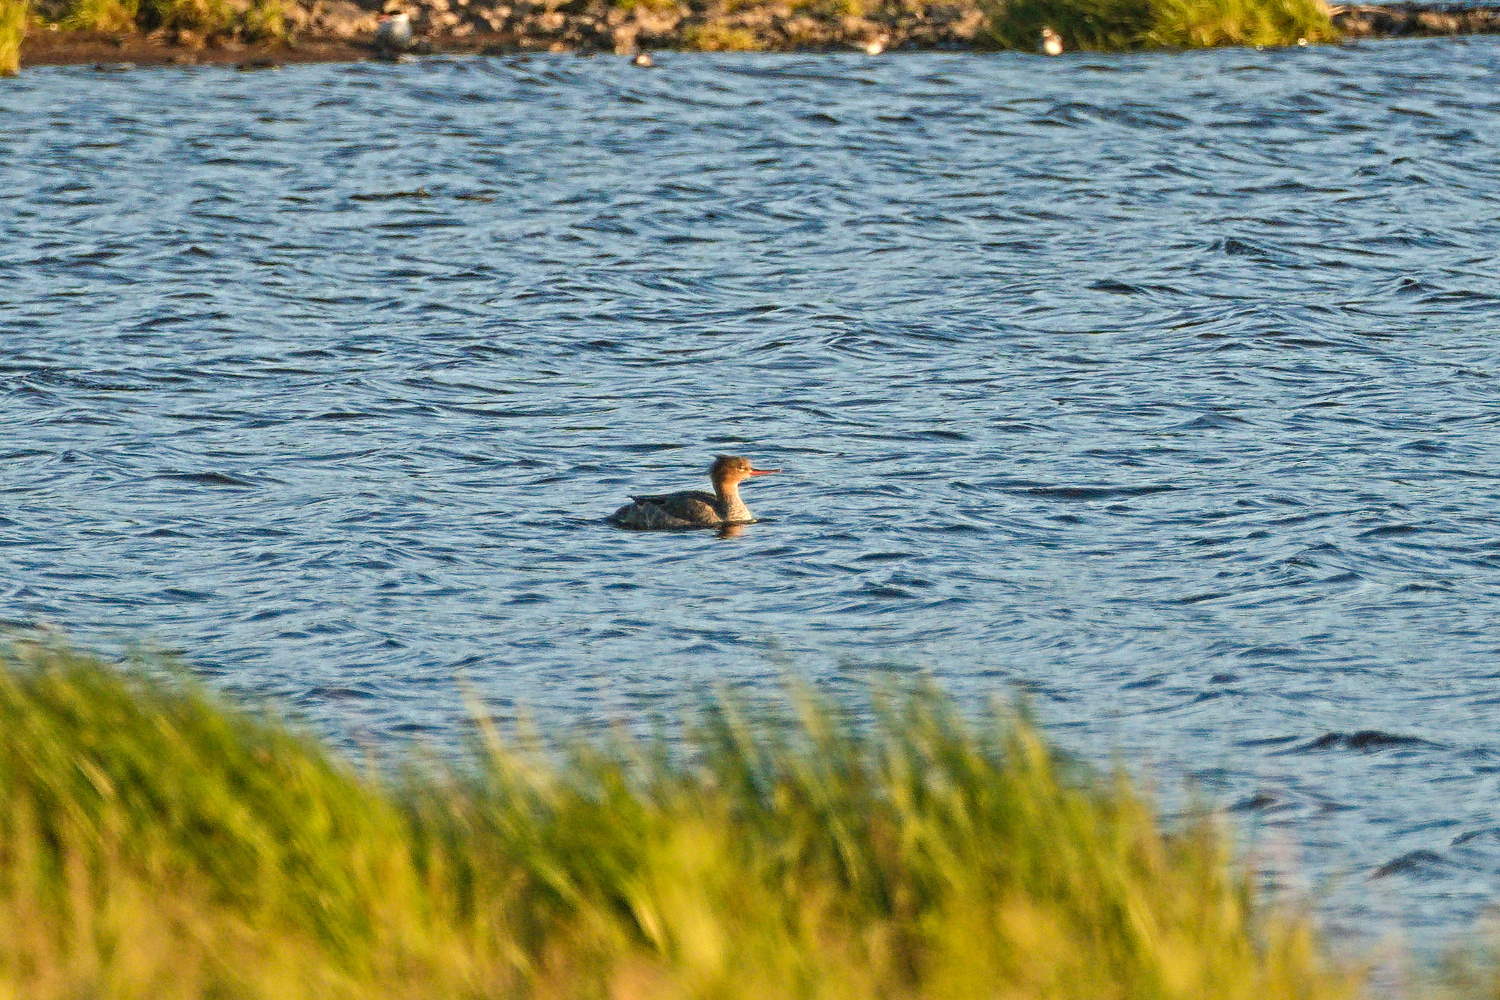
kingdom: Animalia
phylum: Chordata
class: Aves
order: Anseriformes
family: Anatidae
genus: Mergus
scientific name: Mergus serrator
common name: Red-breasted merganser
